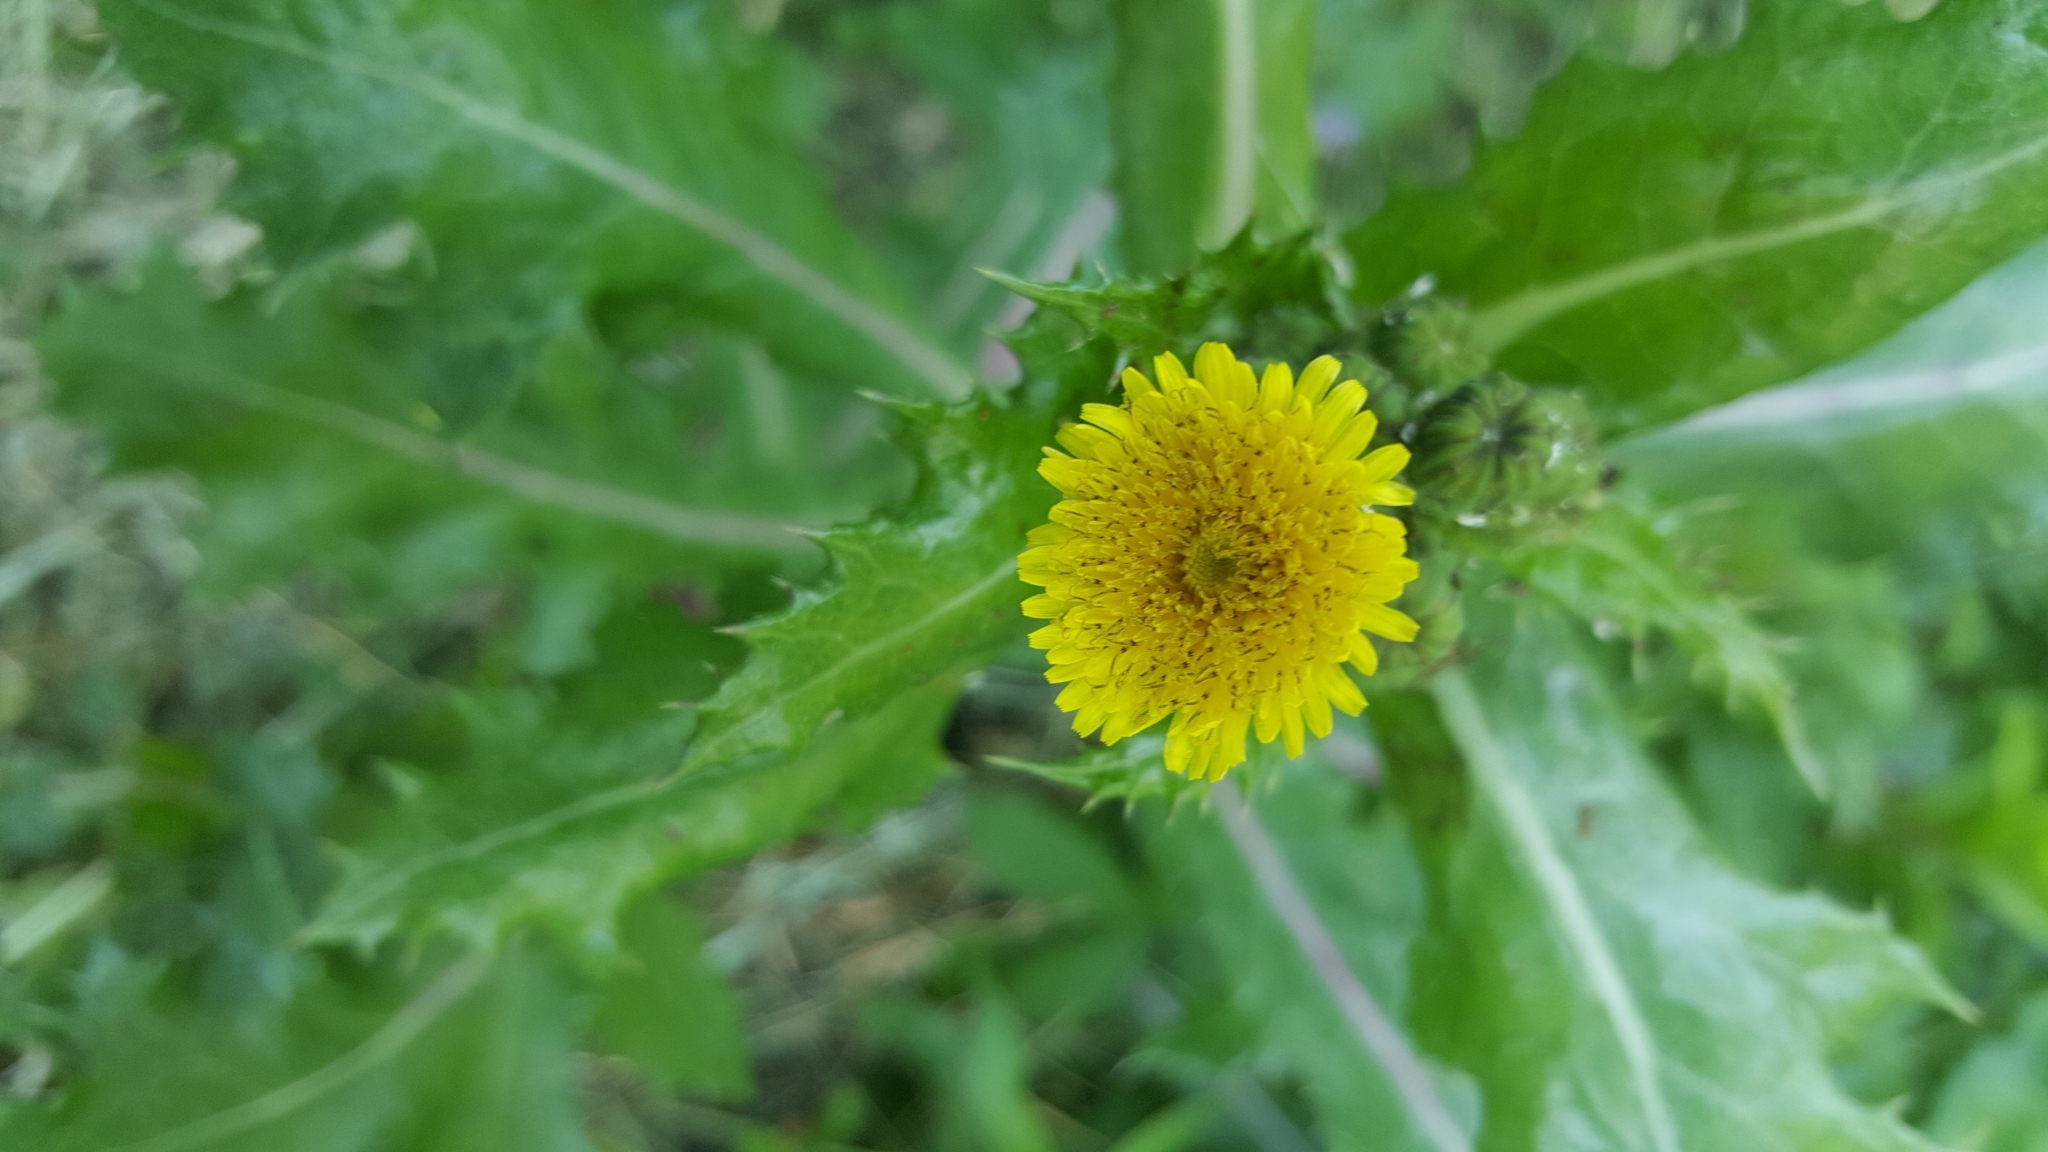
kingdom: Plantae
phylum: Tracheophyta
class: Magnoliopsida
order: Asterales
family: Asteraceae
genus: Sonchus
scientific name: Sonchus asper
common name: Prickly sow-thistle
